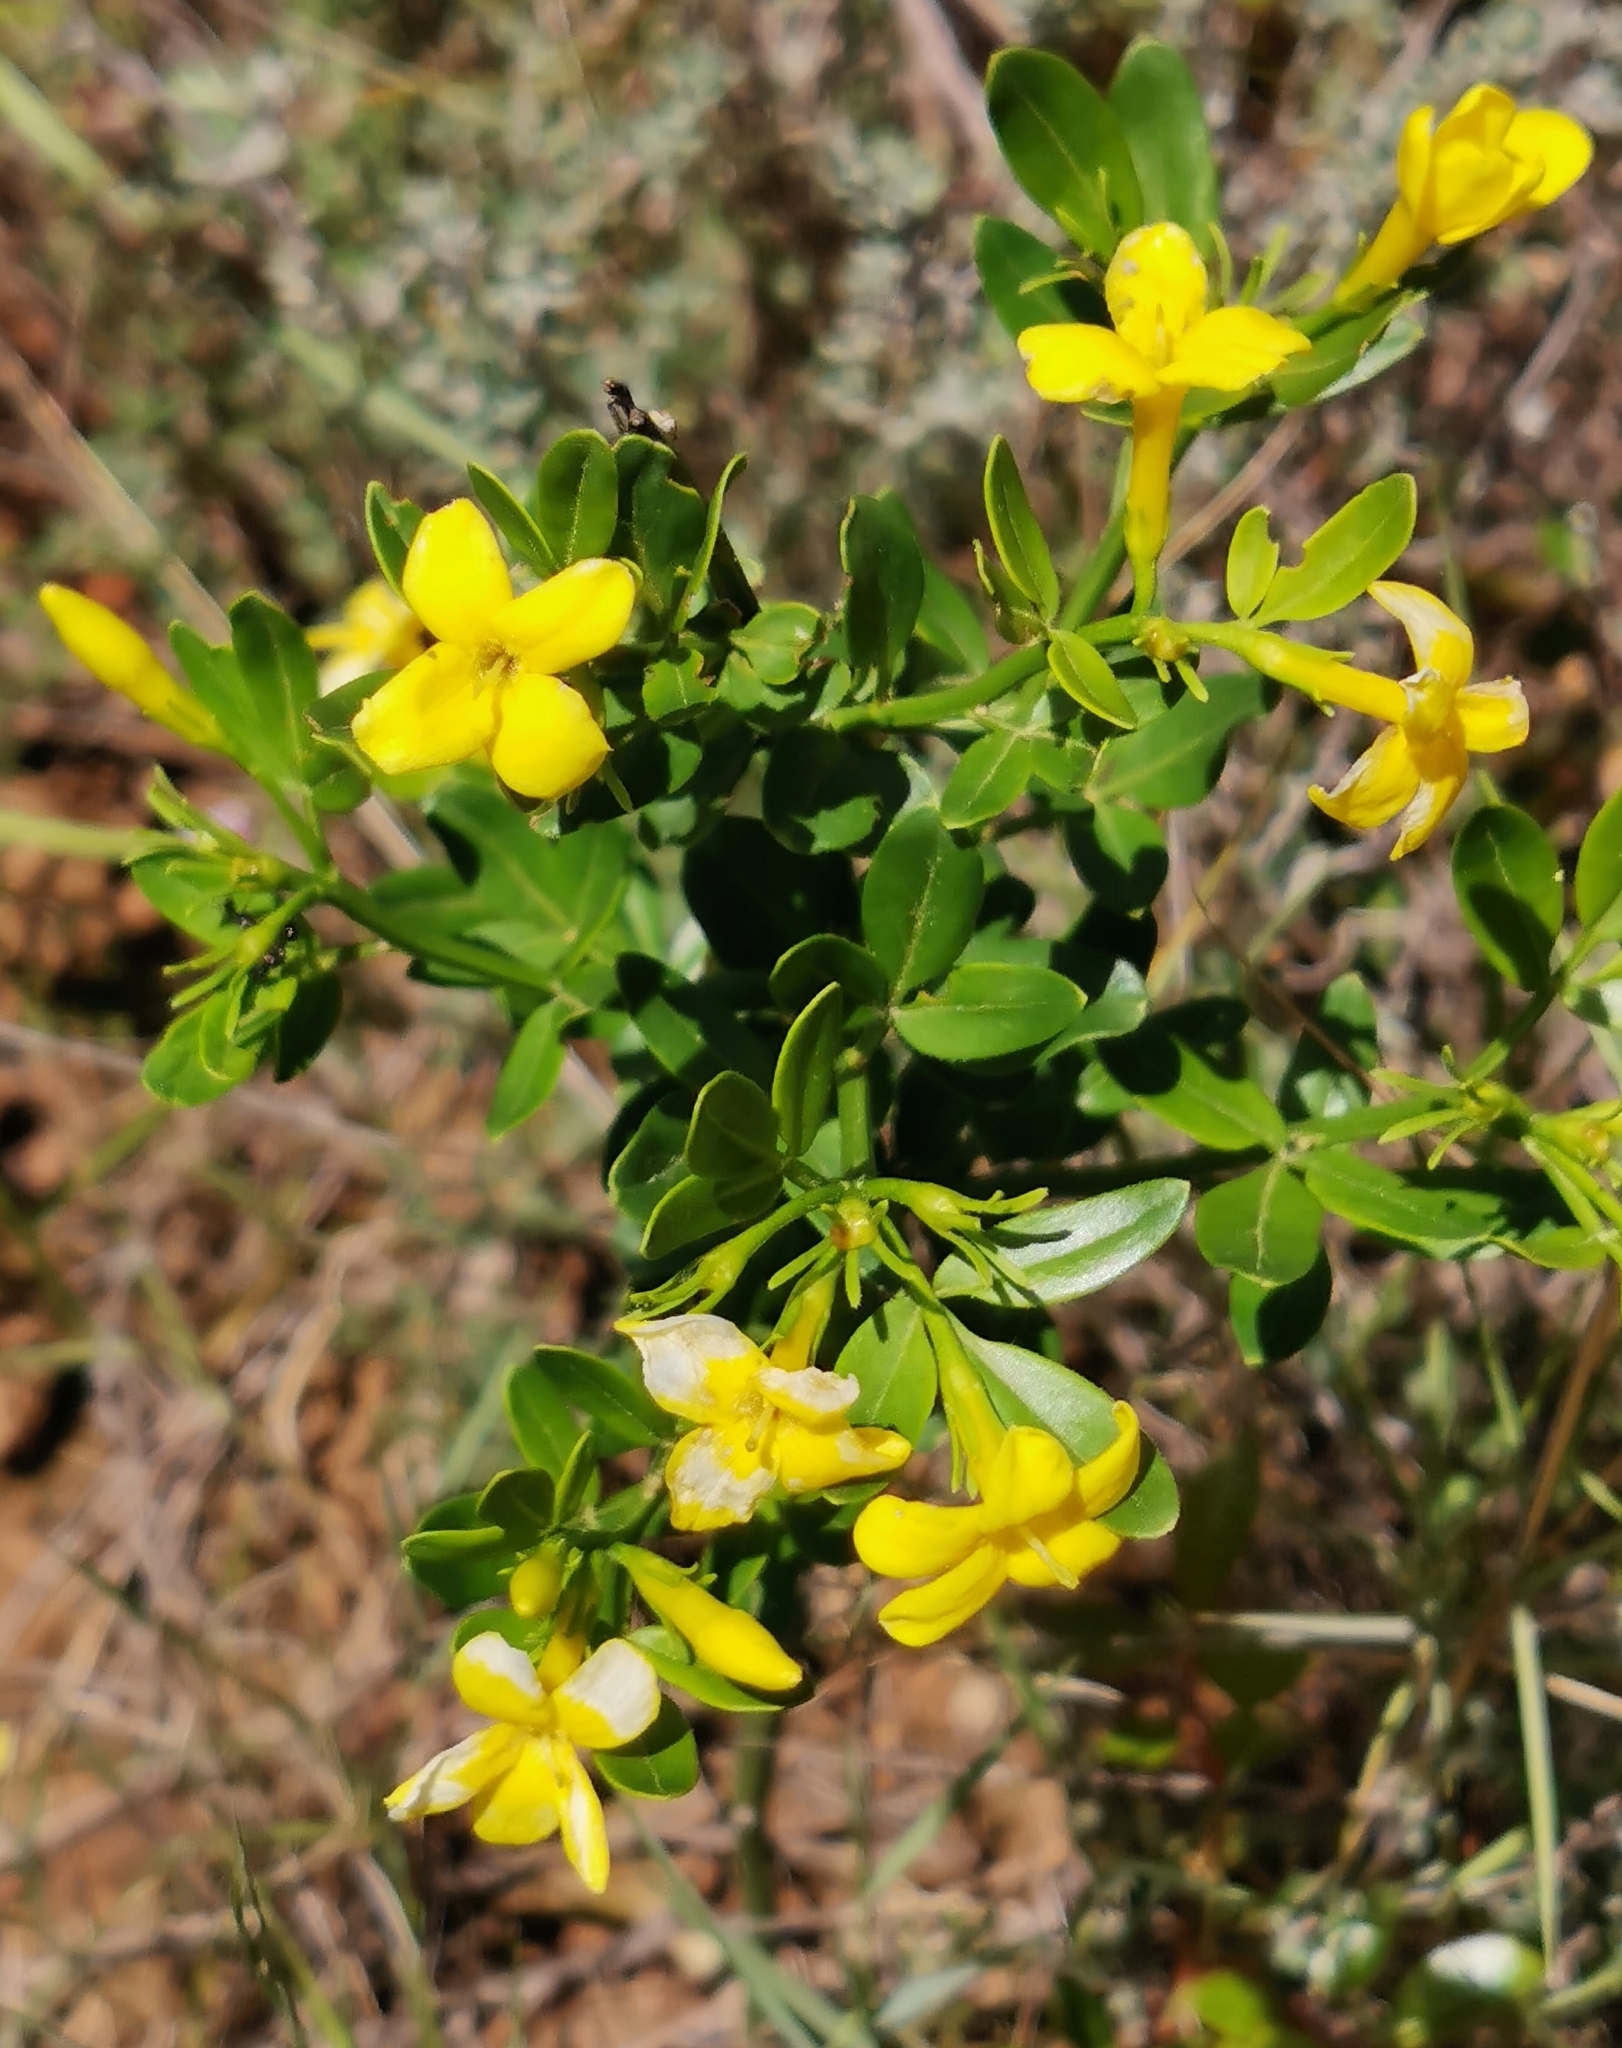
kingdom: Plantae
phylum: Tracheophyta
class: Magnoliopsida
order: Lamiales
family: Oleaceae
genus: Chrysojasminum
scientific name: Chrysojasminum fruticans
